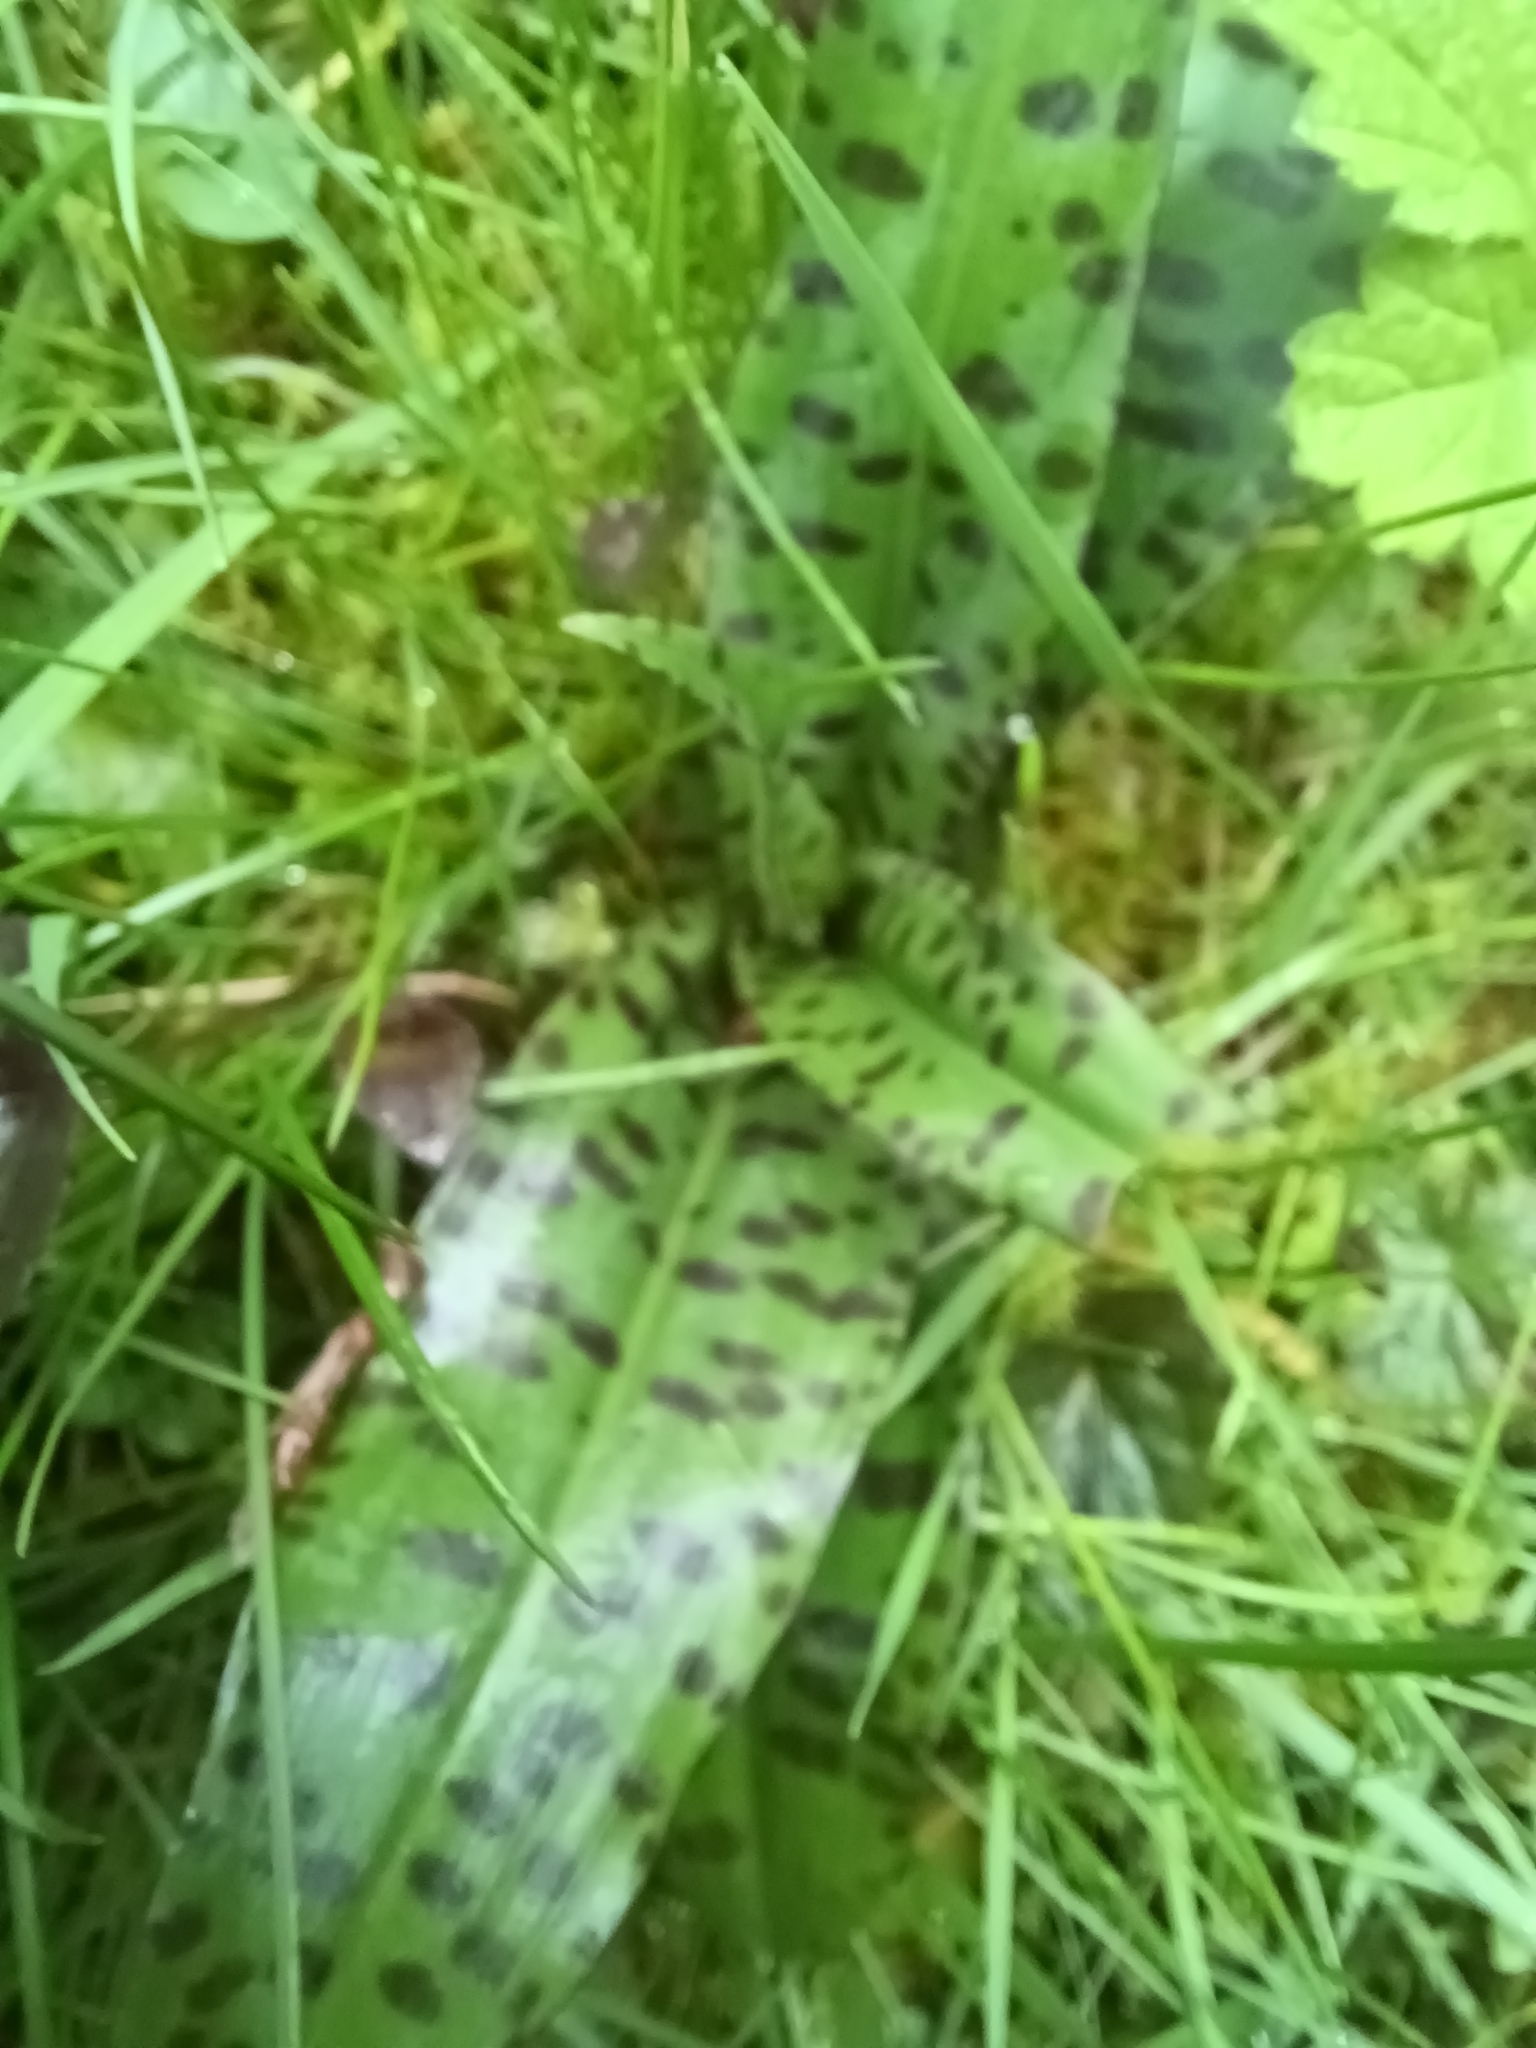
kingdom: Plantae
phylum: Tracheophyta
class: Liliopsida
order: Asparagales
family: Orchidaceae
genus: Dactylorhiza
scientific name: Dactylorhiza maculata
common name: Heath spotted-orchid
